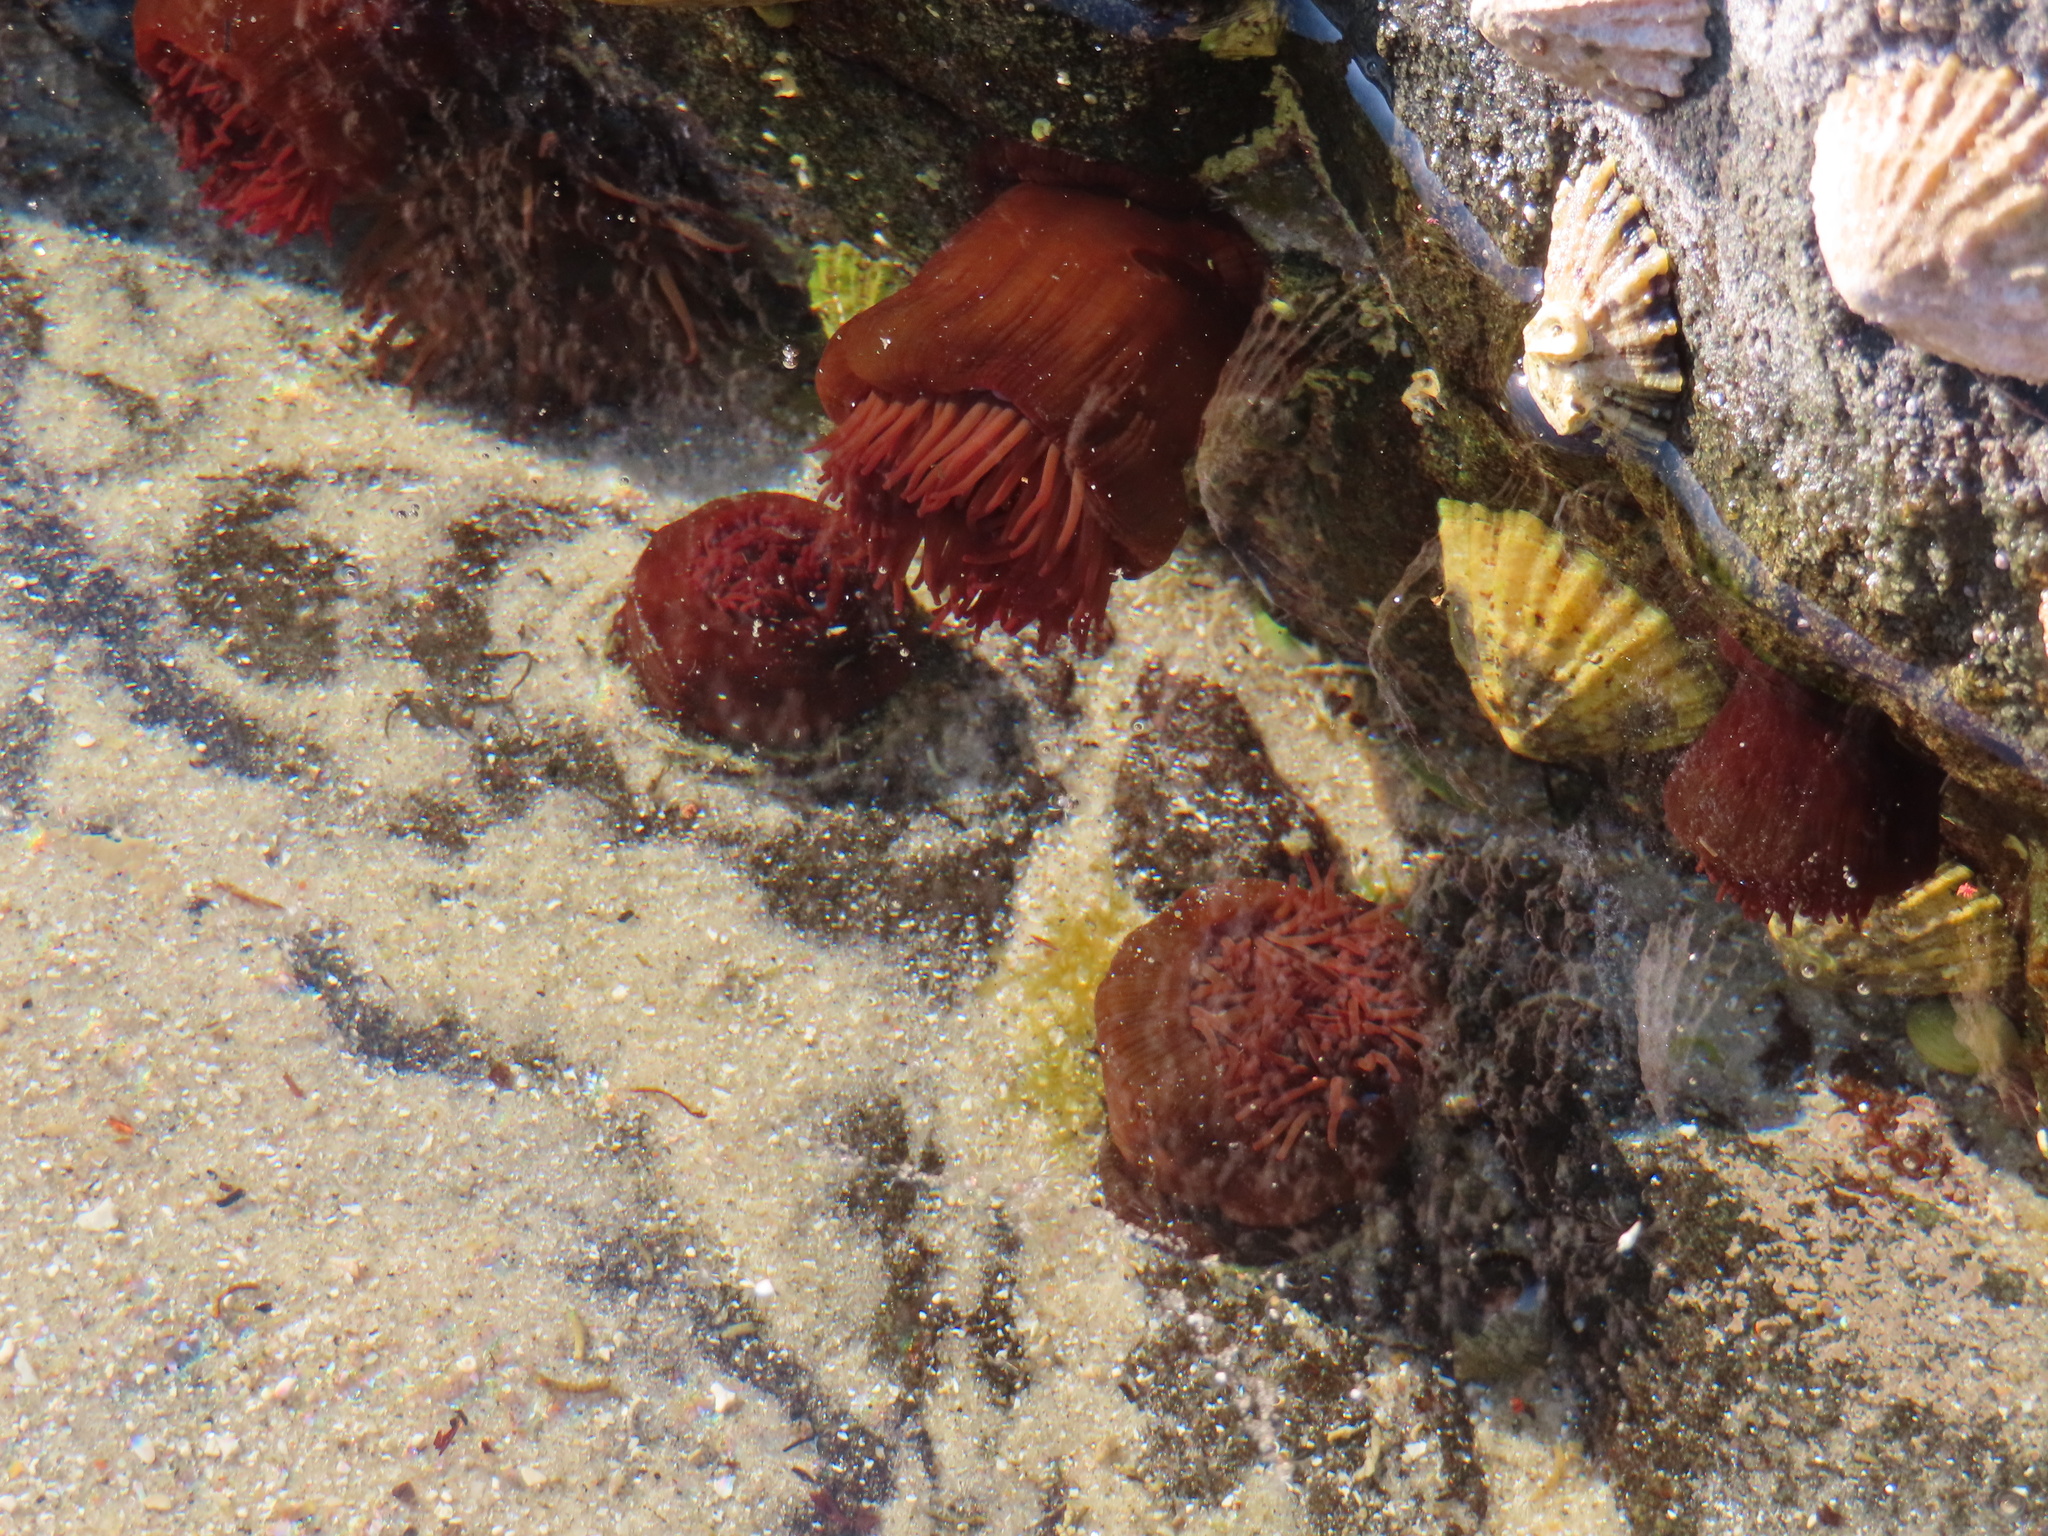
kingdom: Animalia
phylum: Cnidaria
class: Anthozoa
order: Actiniaria
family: Actiniidae
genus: Actinia
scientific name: Actinia equina
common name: Beadlet anemone
